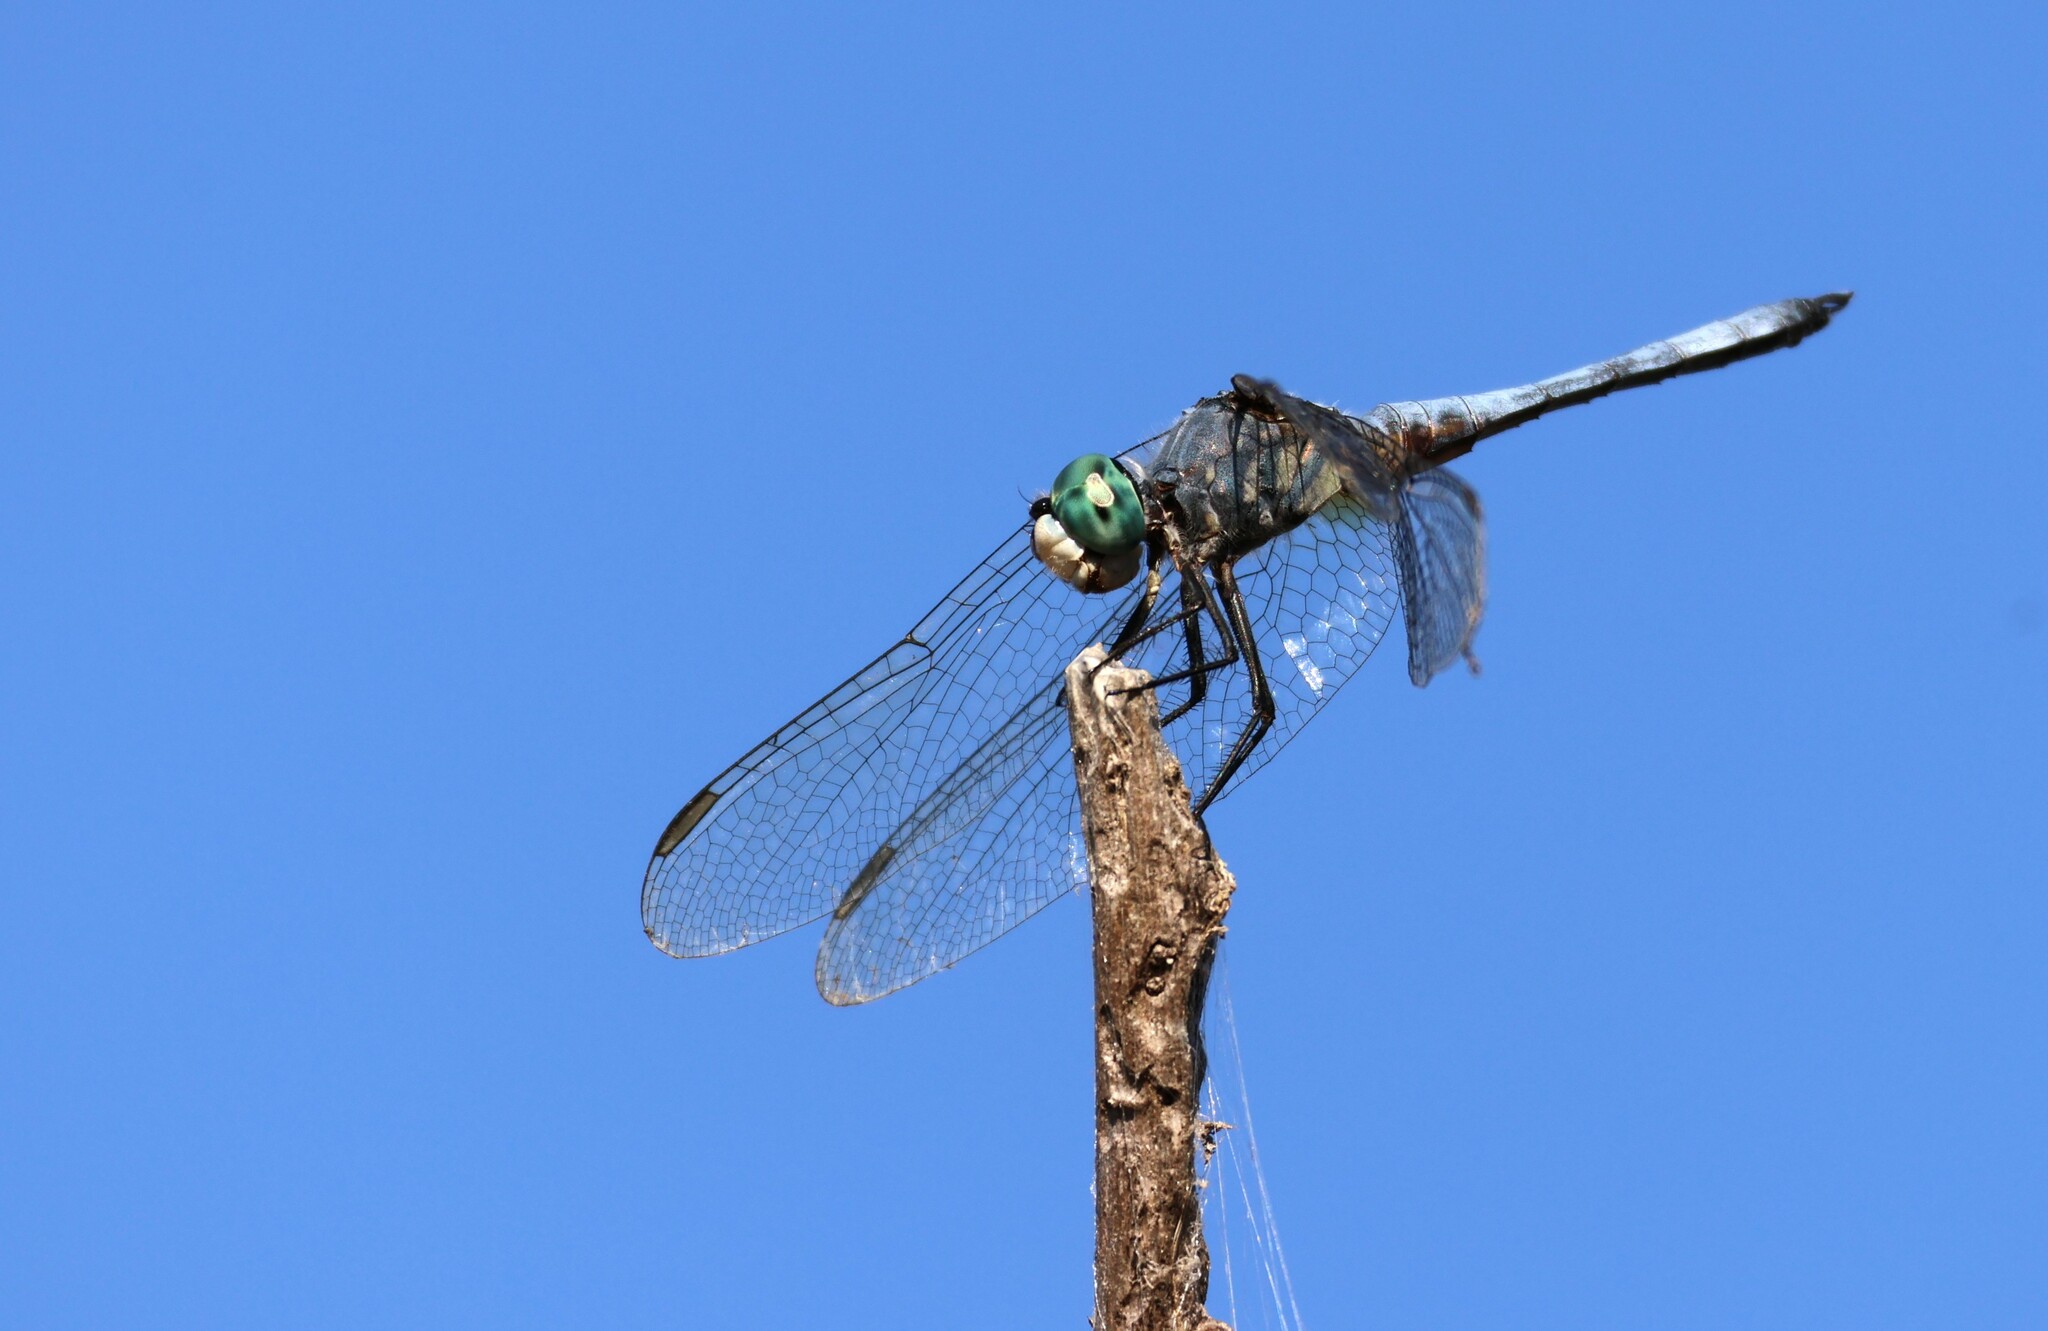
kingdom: Animalia
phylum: Arthropoda
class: Insecta
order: Odonata
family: Libellulidae
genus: Pachydiplax
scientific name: Pachydiplax longipennis
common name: Blue dasher
